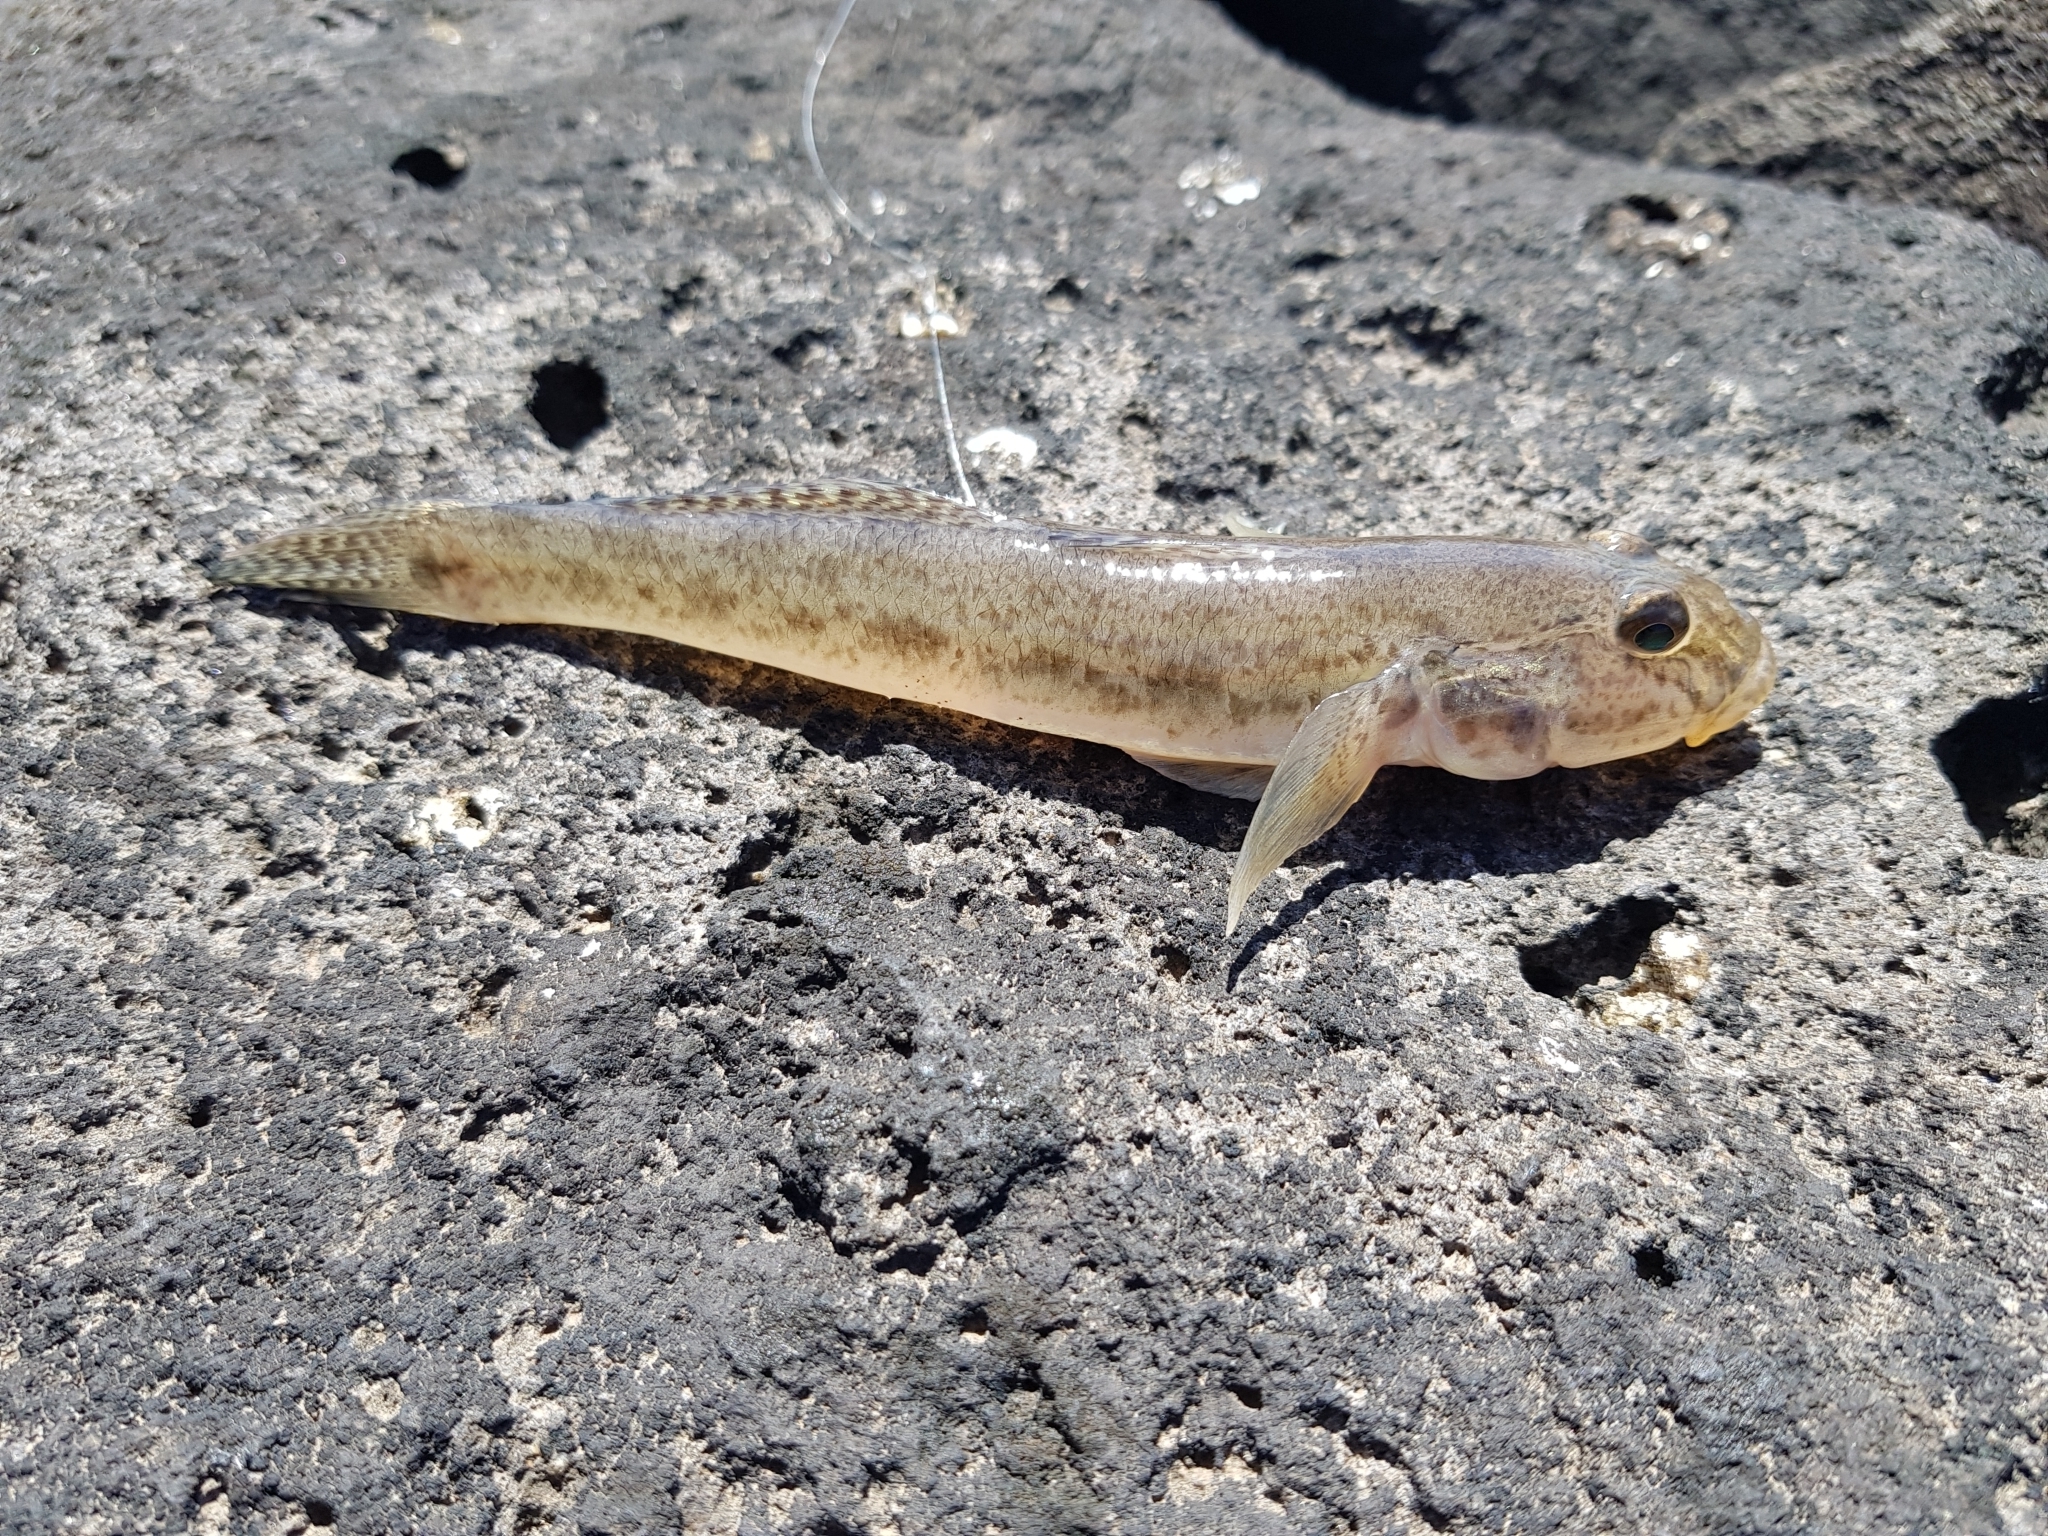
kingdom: Animalia
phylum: Chordata
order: Perciformes
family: Gobiidae
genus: Acanthogobius
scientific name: Acanthogobius flavimanus
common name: Yellowfin goby
